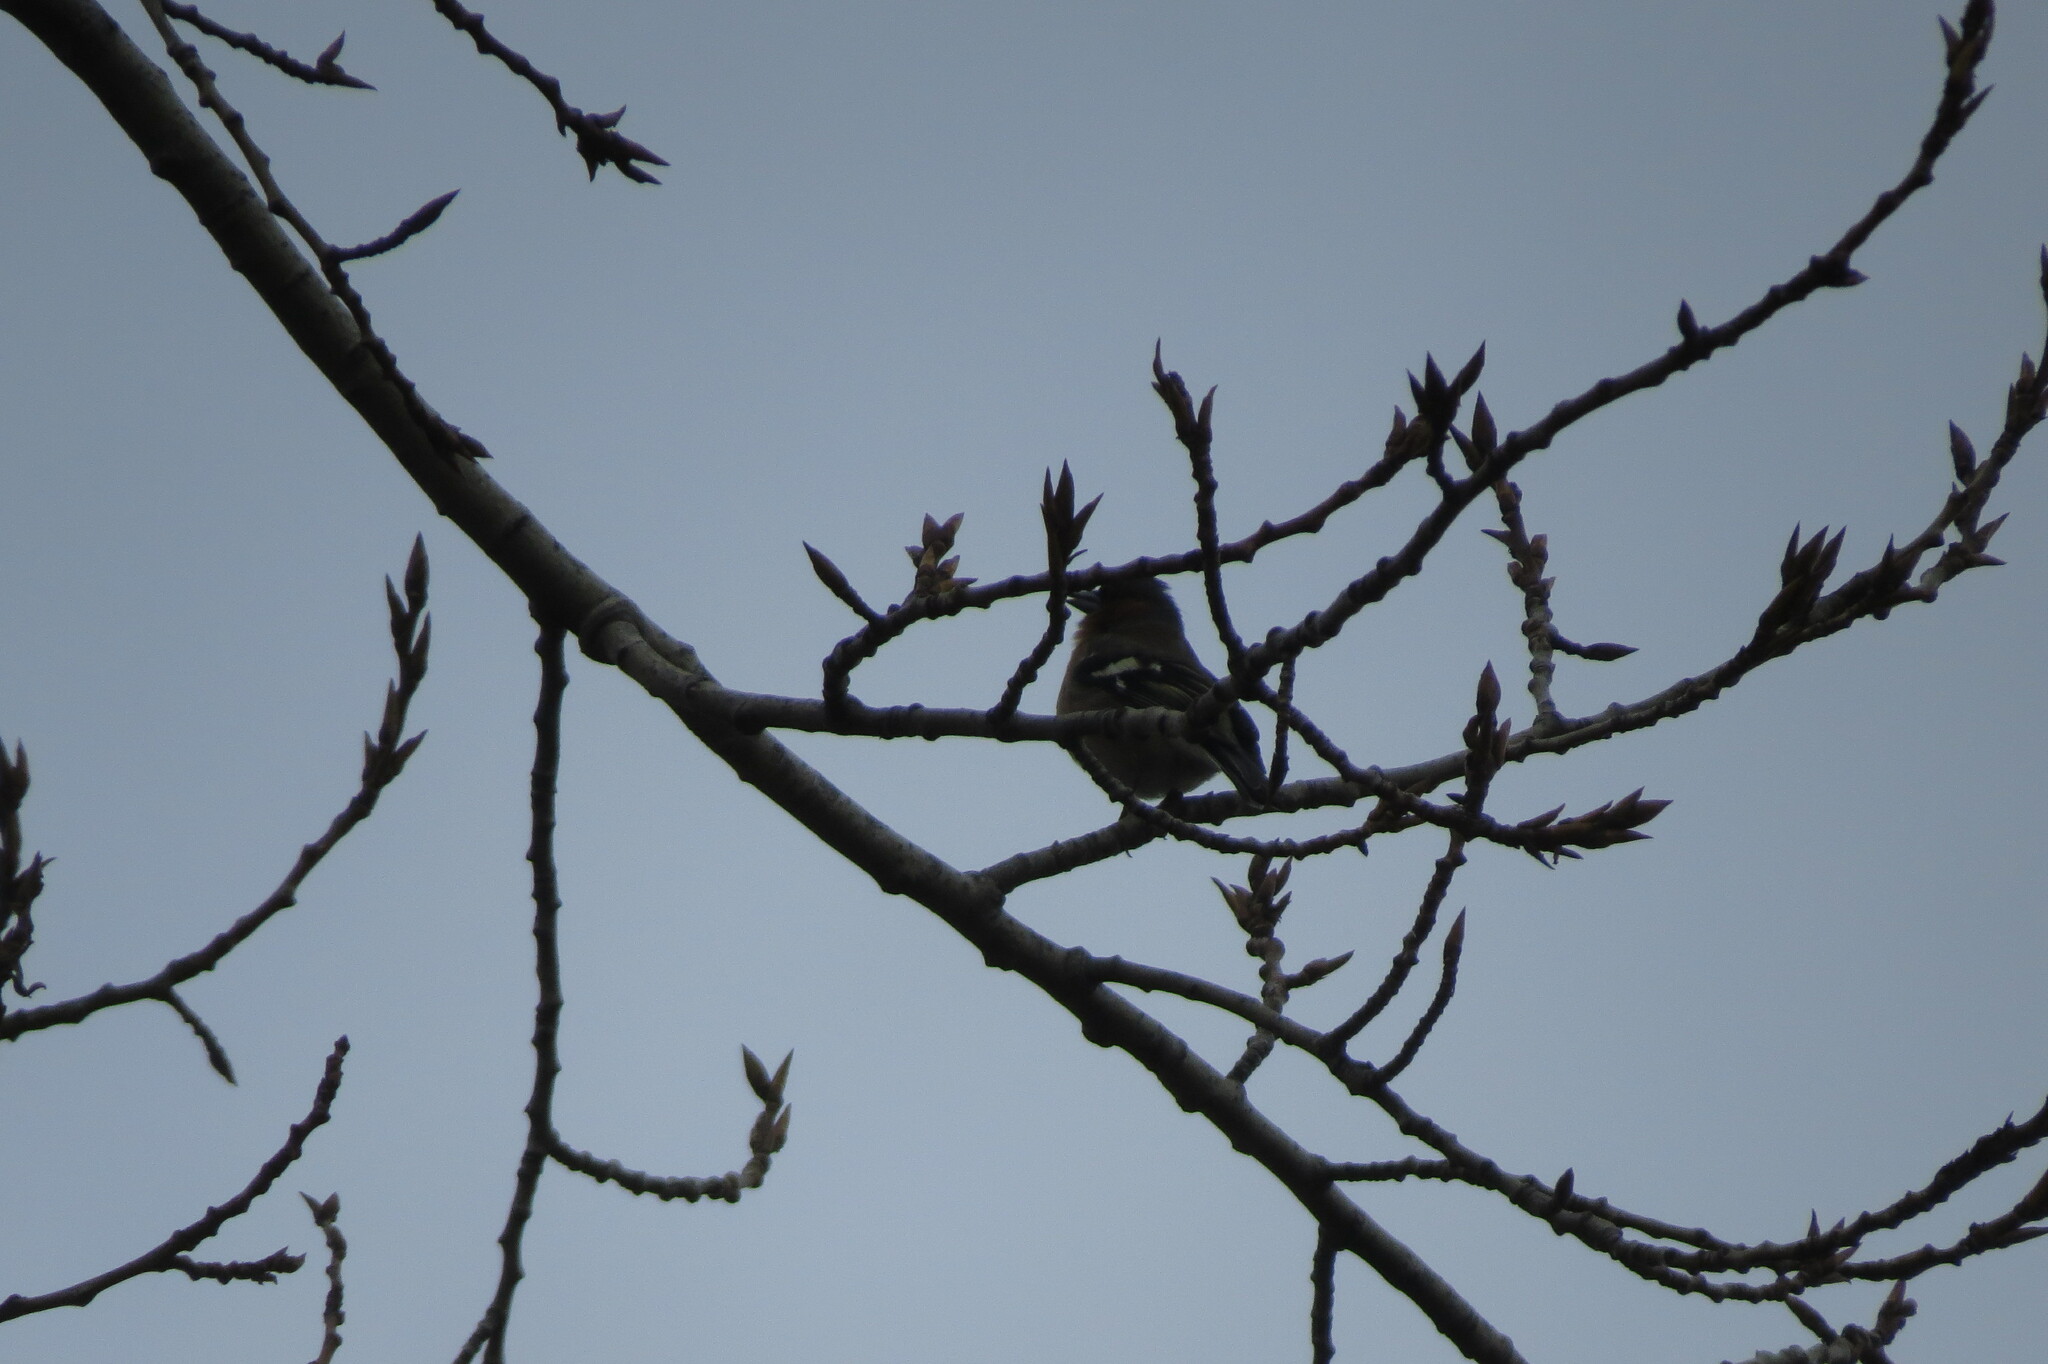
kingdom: Animalia
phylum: Chordata
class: Aves
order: Passeriformes
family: Fringillidae
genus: Fringilla
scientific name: Fringilla coelebs
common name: Common chaffinch
